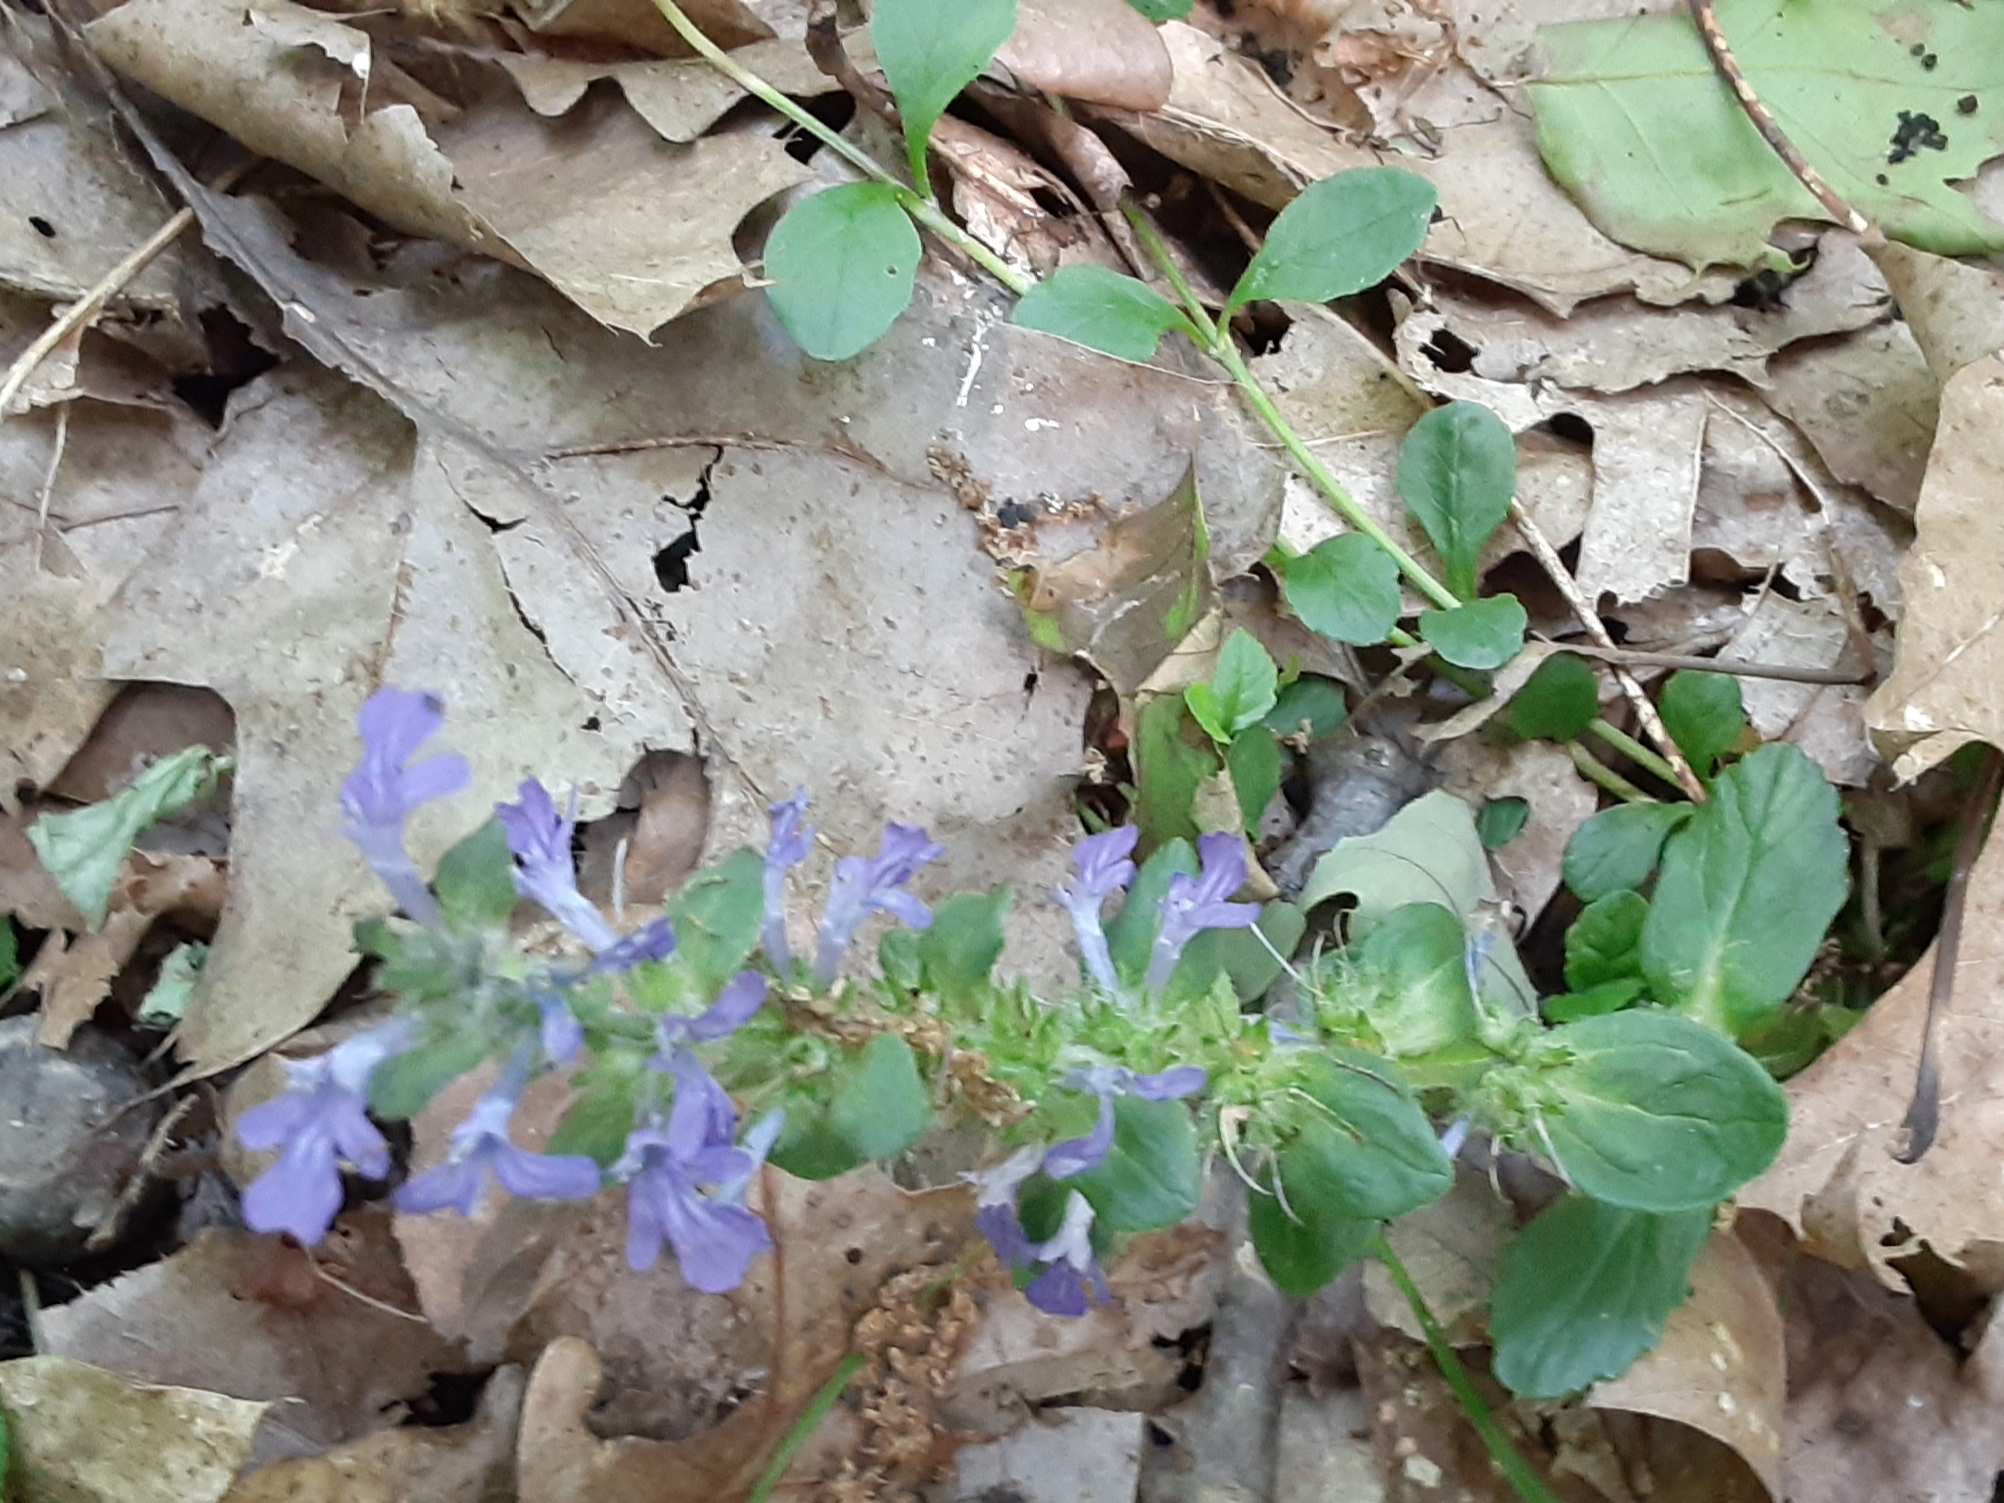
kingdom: Plantae
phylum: Tracheophyta
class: Magnoliopsida
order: Lamiales
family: Lamiaceae
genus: Ajuga
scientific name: Ajuga reptans
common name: Bugle
